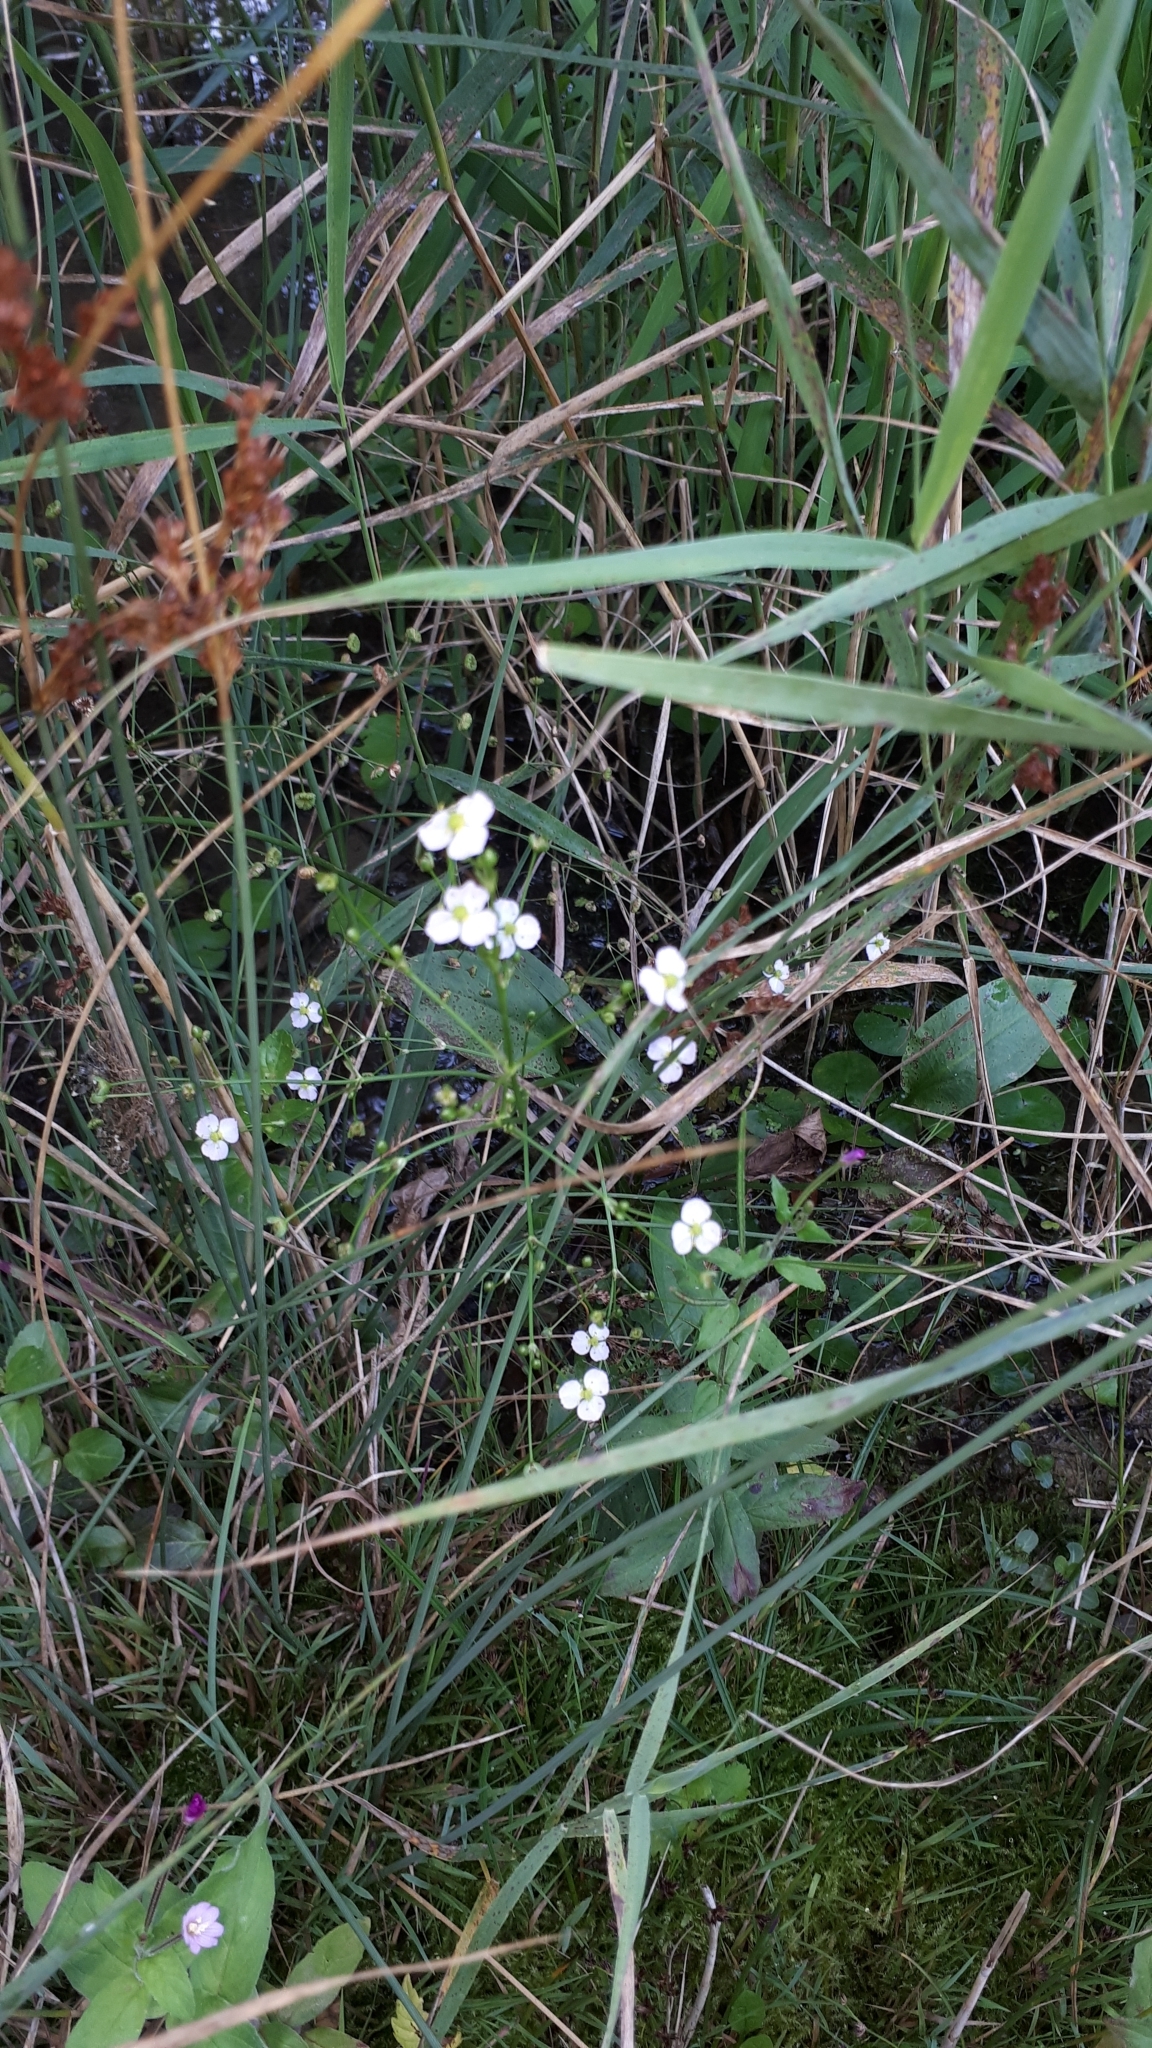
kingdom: Plantae
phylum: Tracheophyta
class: Liliopsida
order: Alismatales
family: Alismataceae
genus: Alisma
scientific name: Alisma plantago-aquatica
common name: Water-plantain
